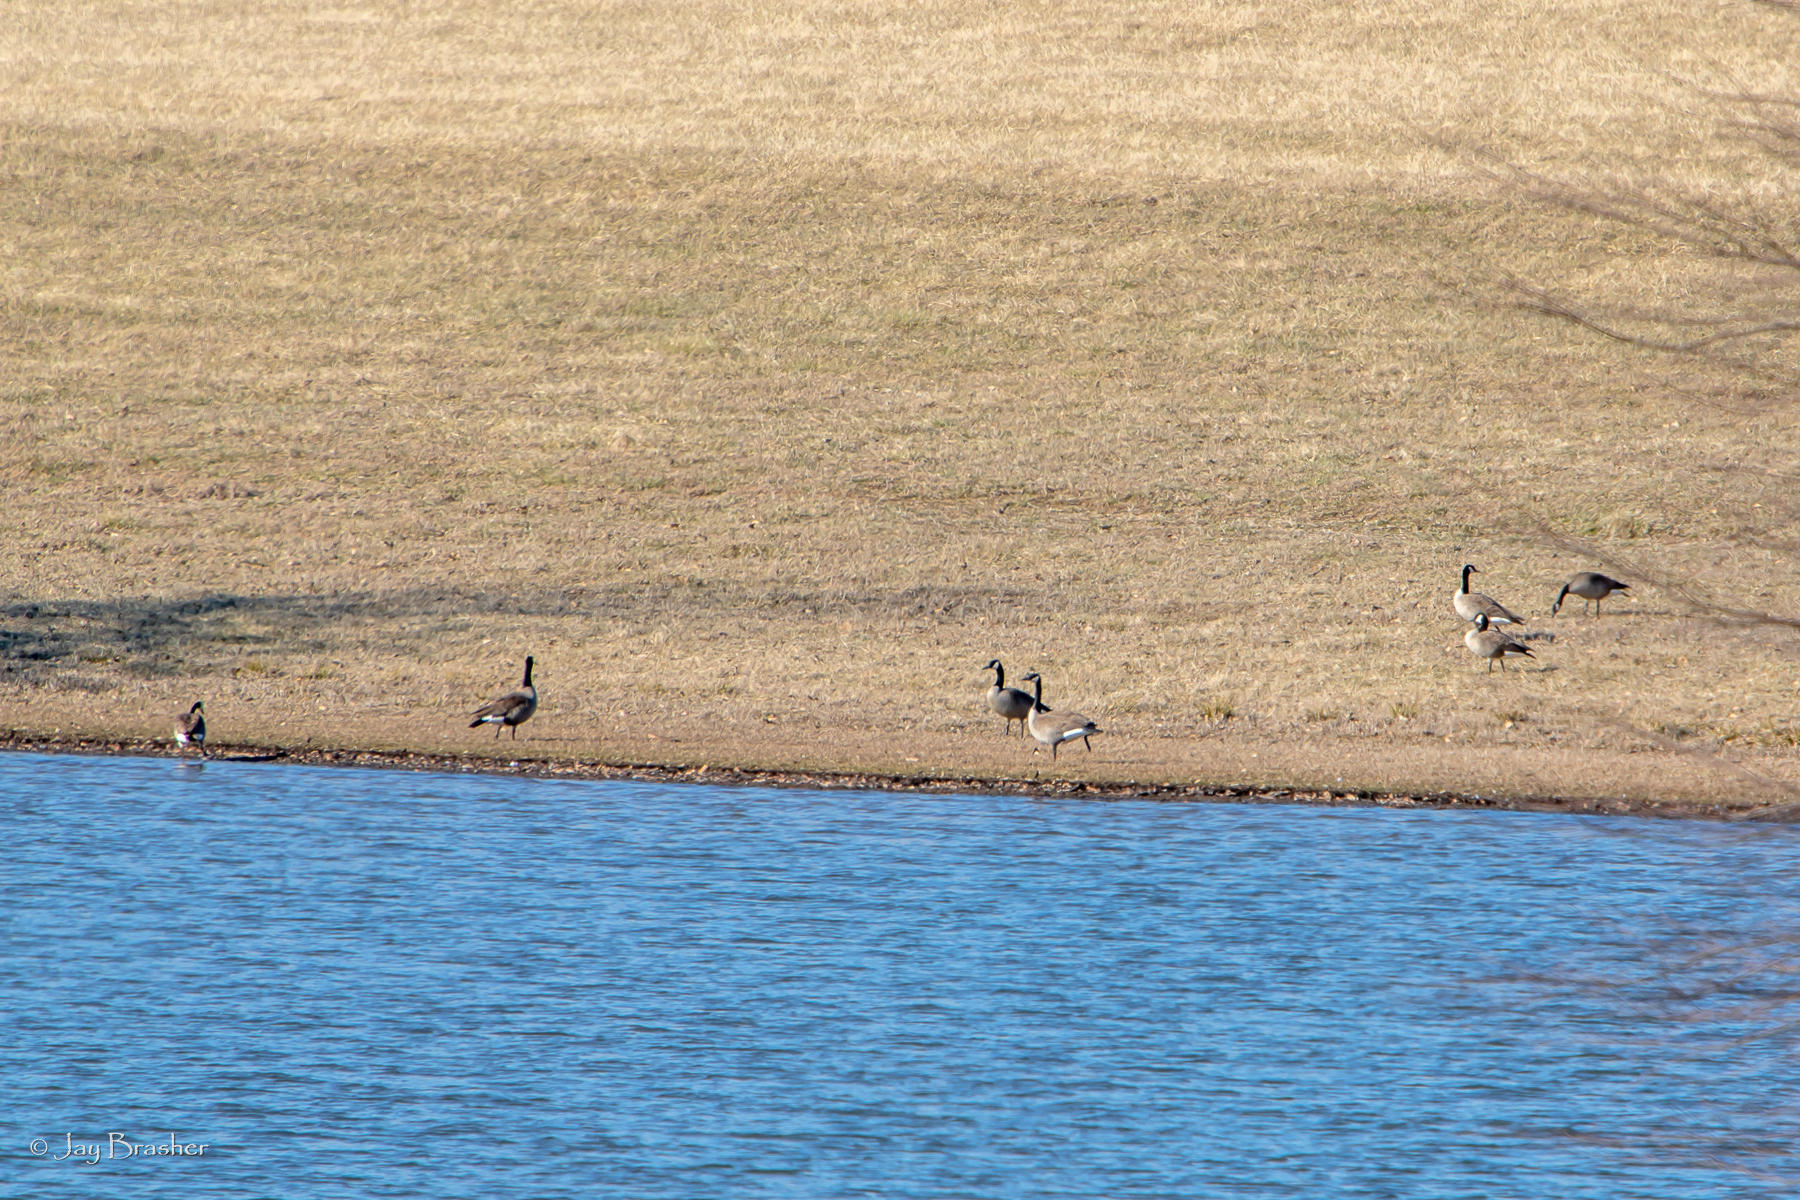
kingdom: Animalia
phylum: Chordata
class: Aves
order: Anseriformes
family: Anatidae
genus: Branta
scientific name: Branta canadensis
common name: Canada goose
